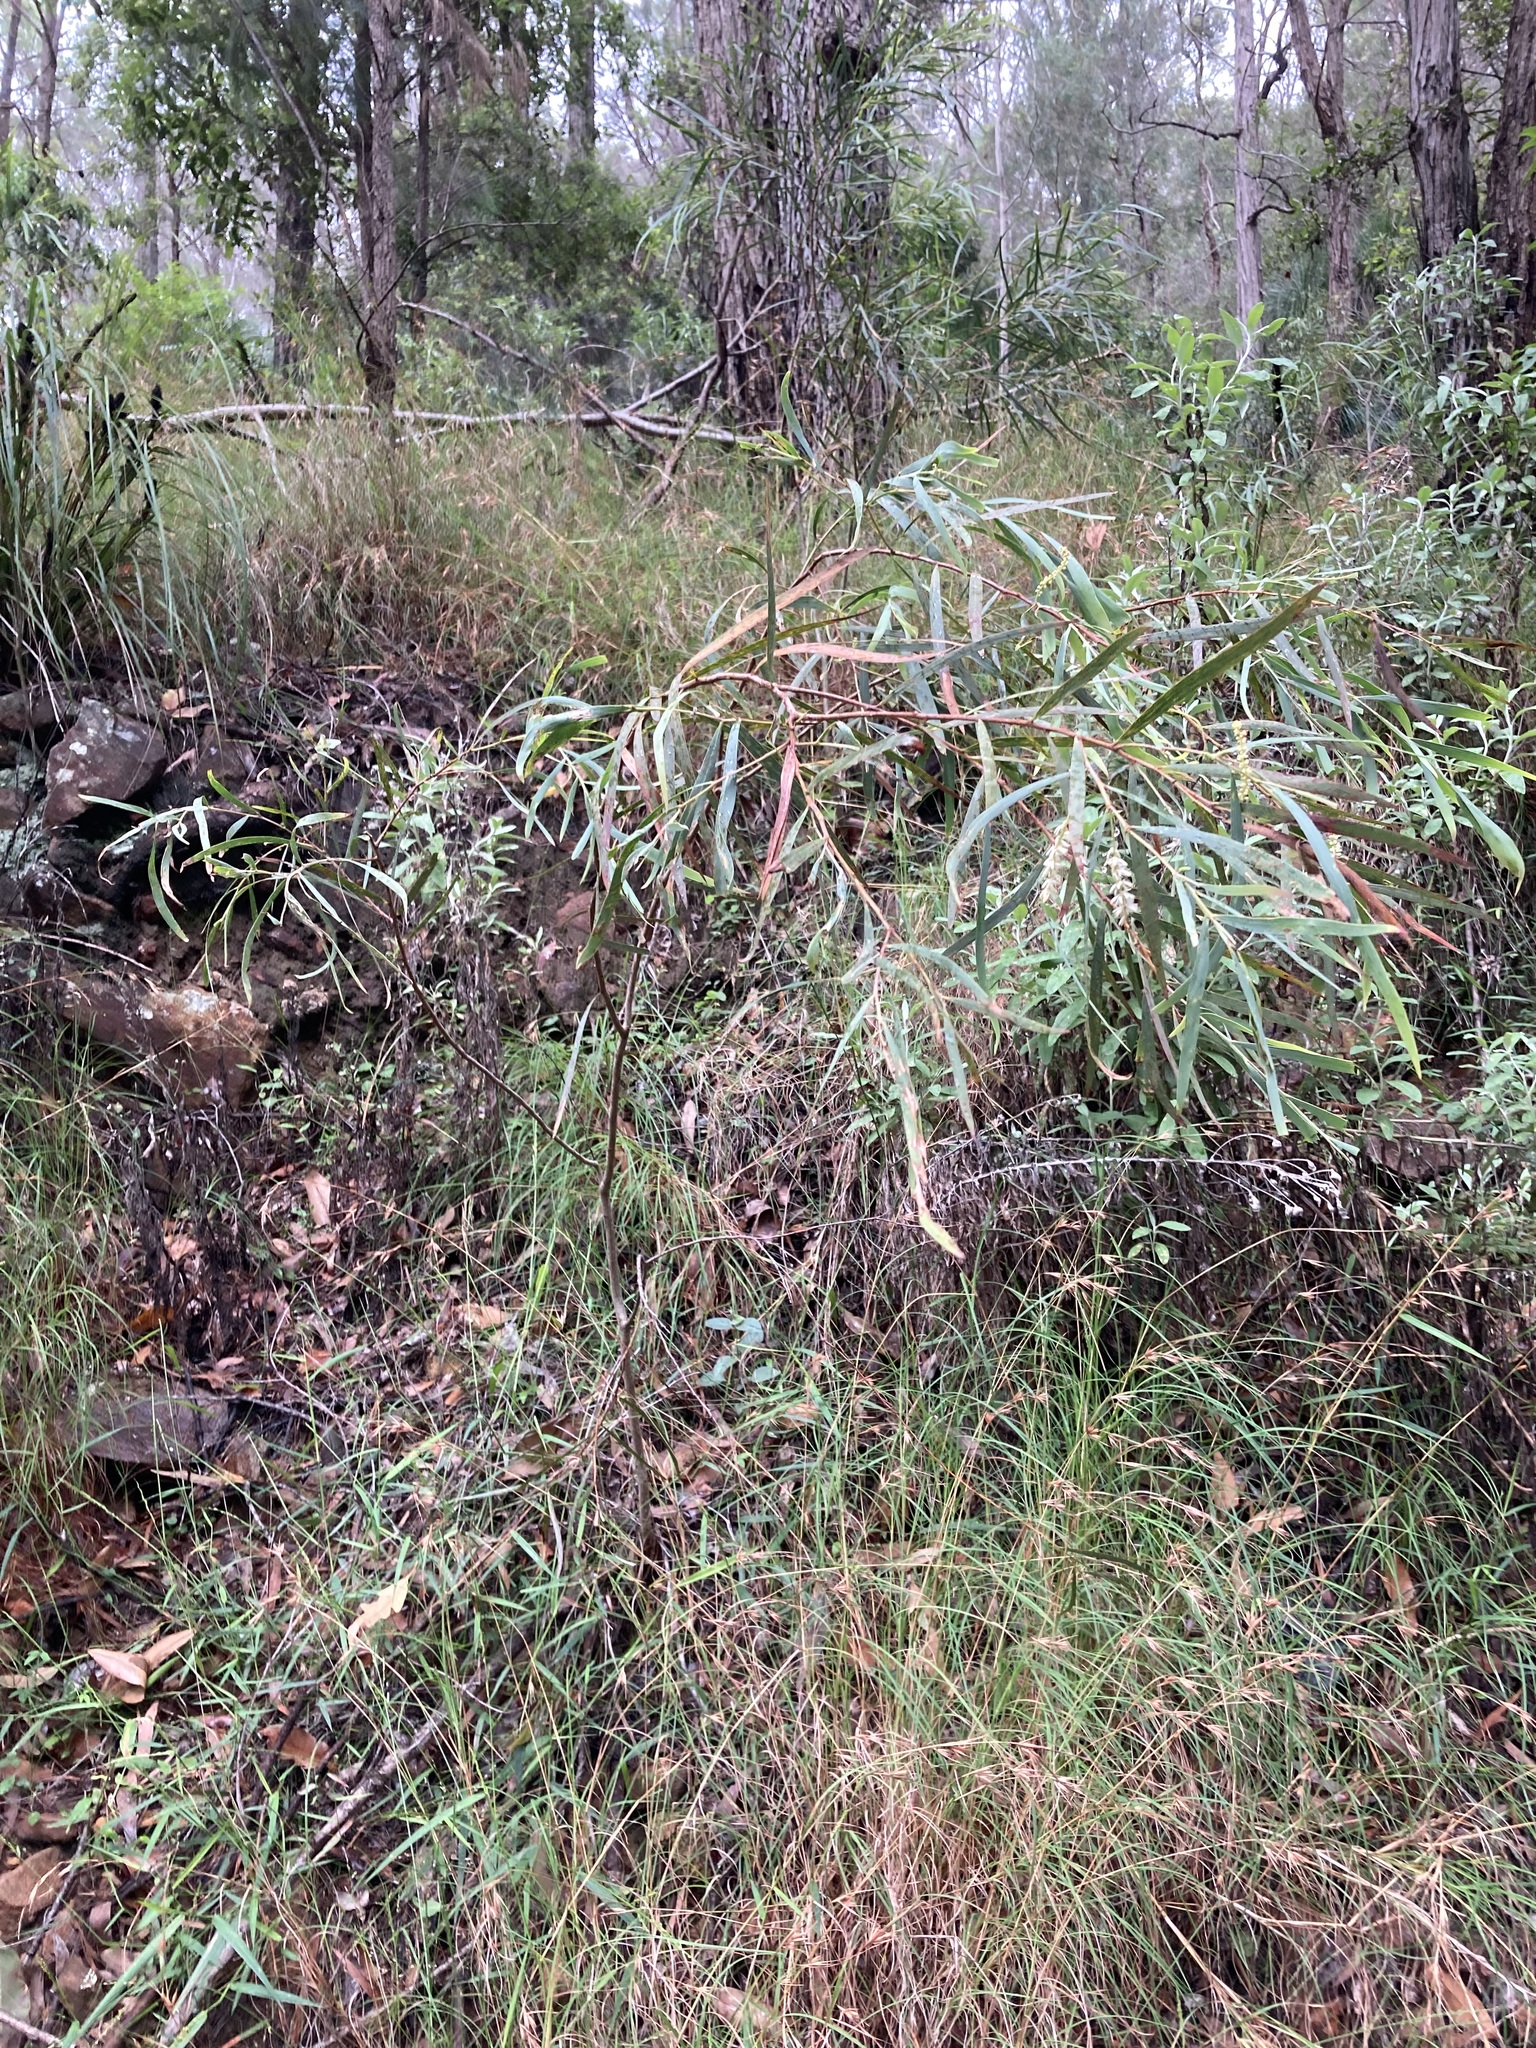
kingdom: Plantae
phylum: Tracheophyta
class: Magnoliopsida
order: Fabales
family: Fabaceae
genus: Acacia
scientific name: Acacia courtii
